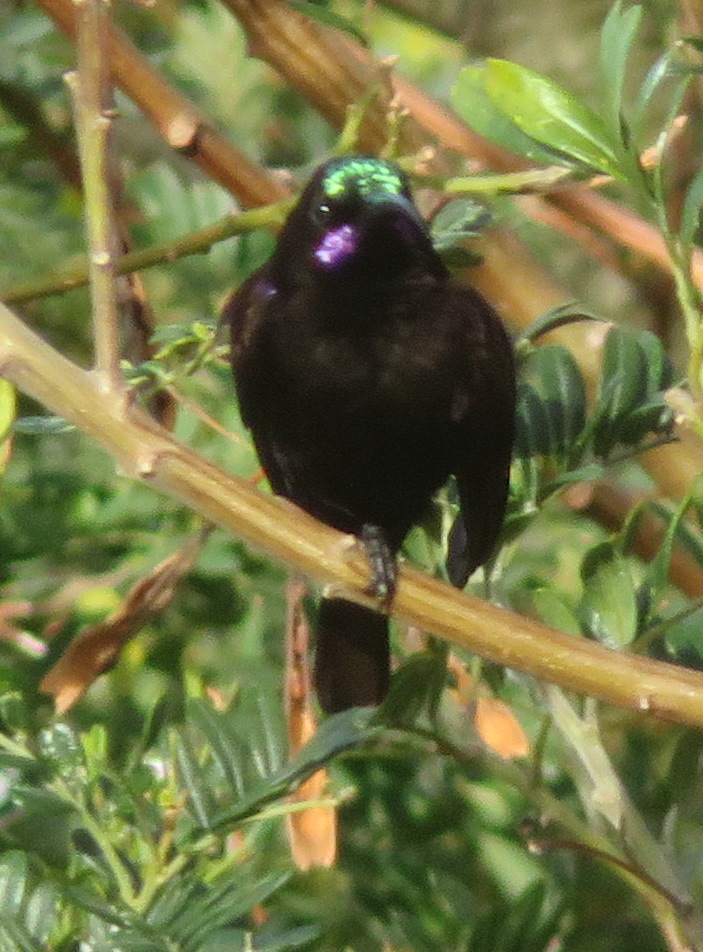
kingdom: Animalia
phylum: Chordata
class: Aves
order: Passeriformes
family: Nectariniidae
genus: Chalcomitra
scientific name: Chalcomitra amethystina
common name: Amethyst sunbird
